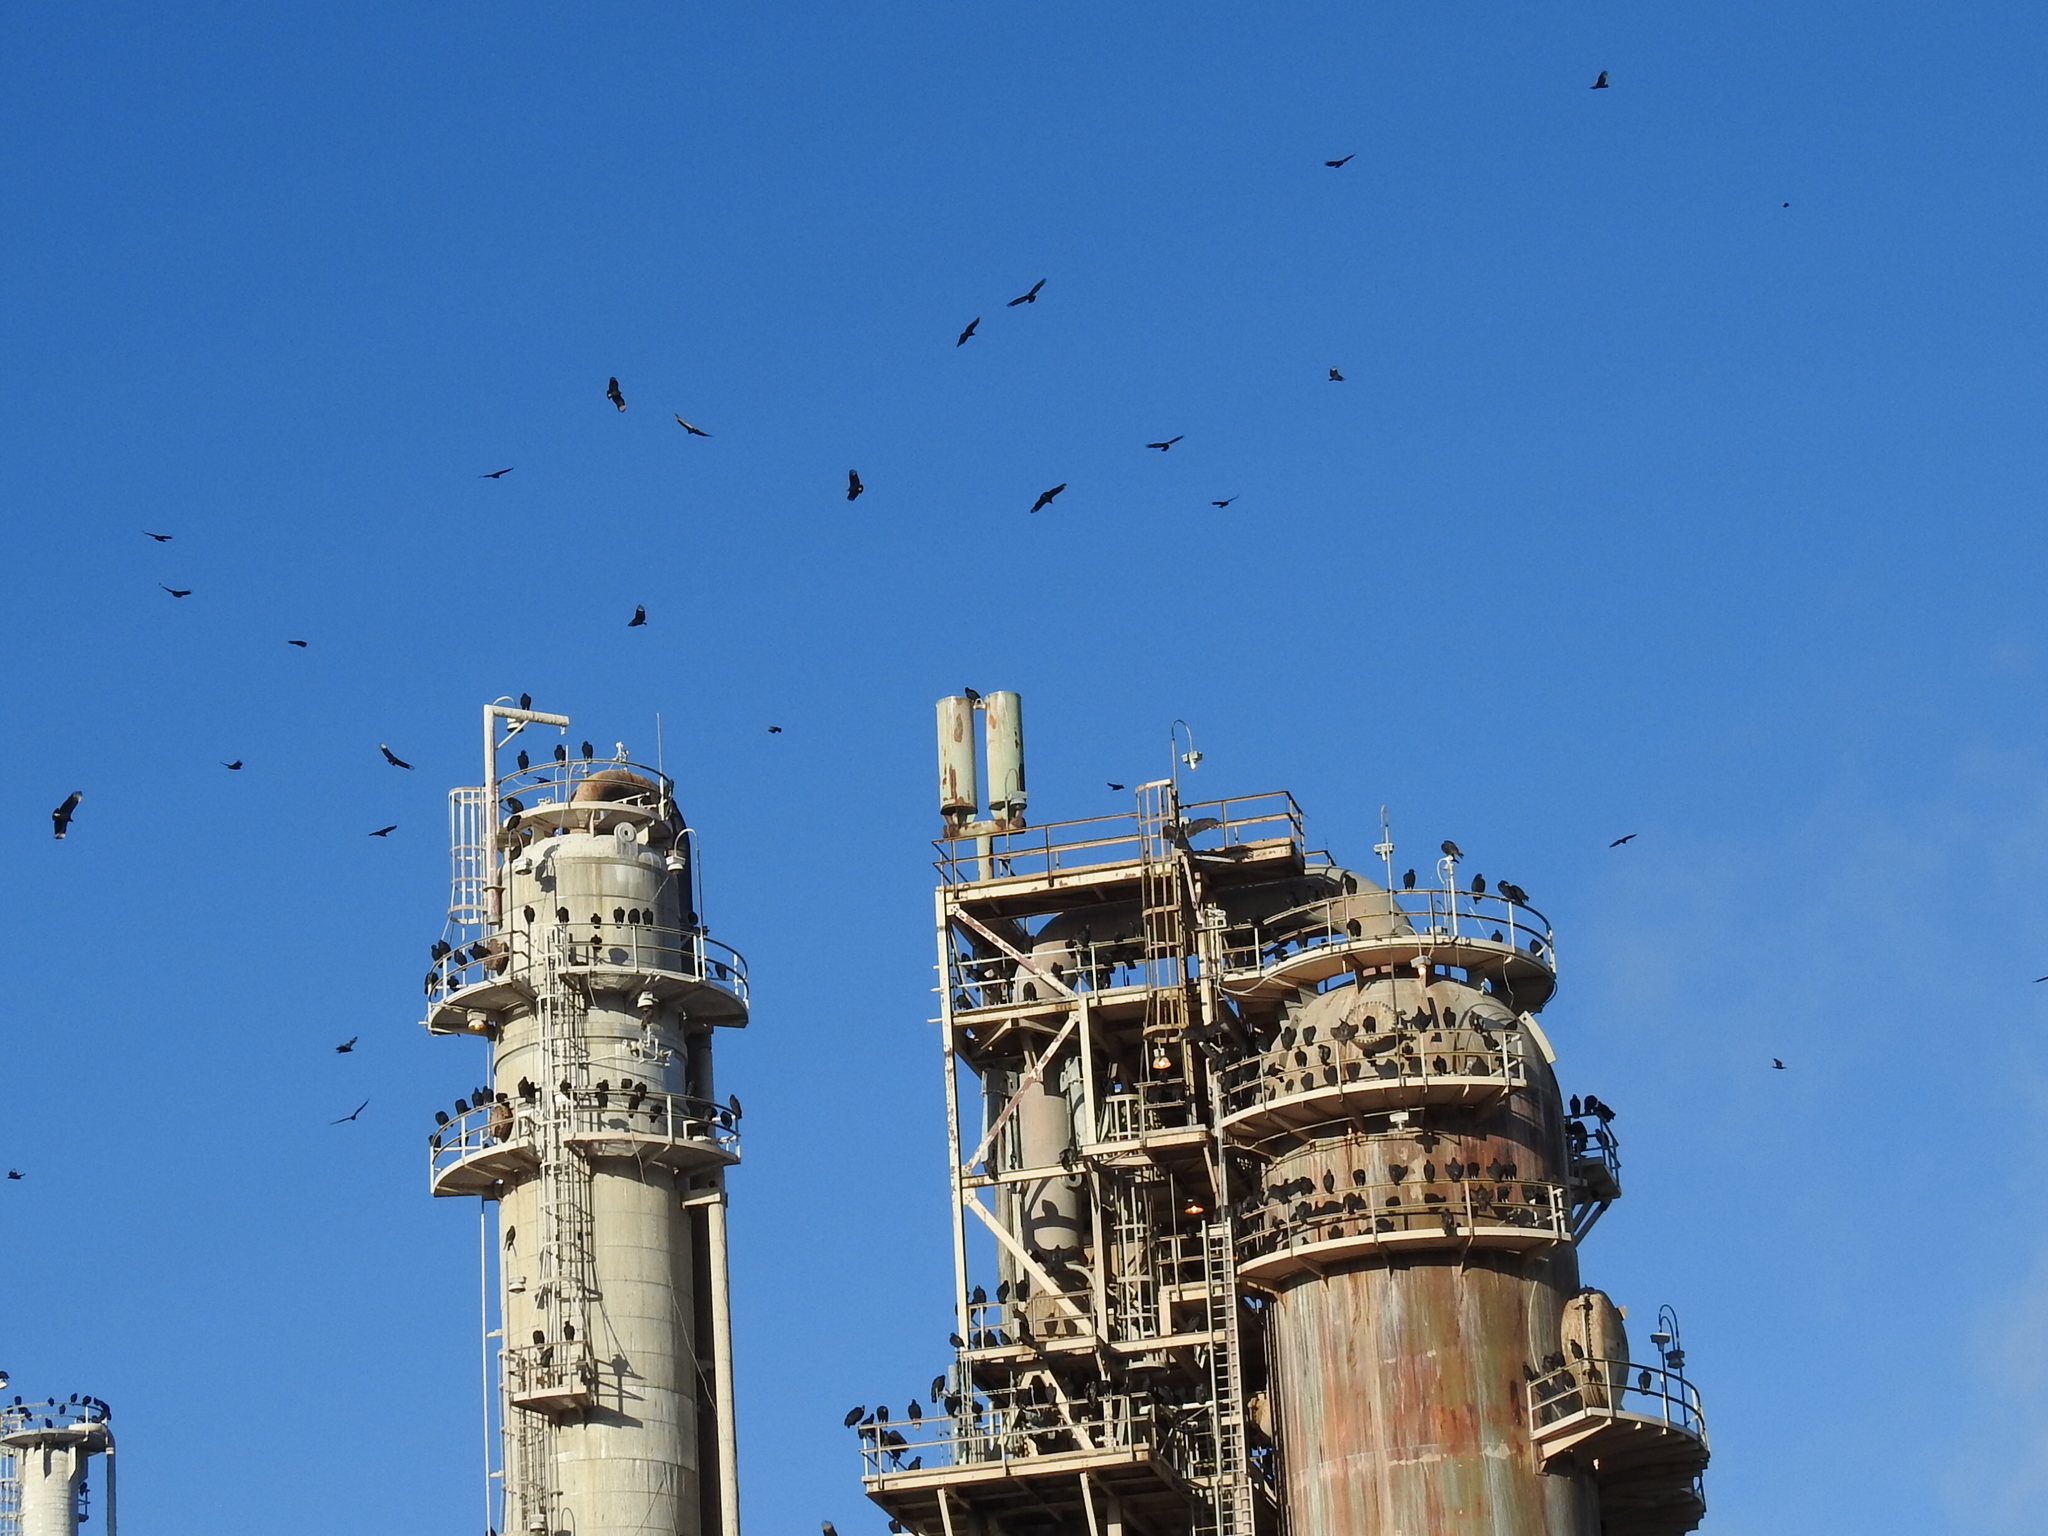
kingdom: Animalia
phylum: Chordata
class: Aves
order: Accipitriformes
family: Cathartidae
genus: Coragyps
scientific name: Coragyps atratus
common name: Black vulture
